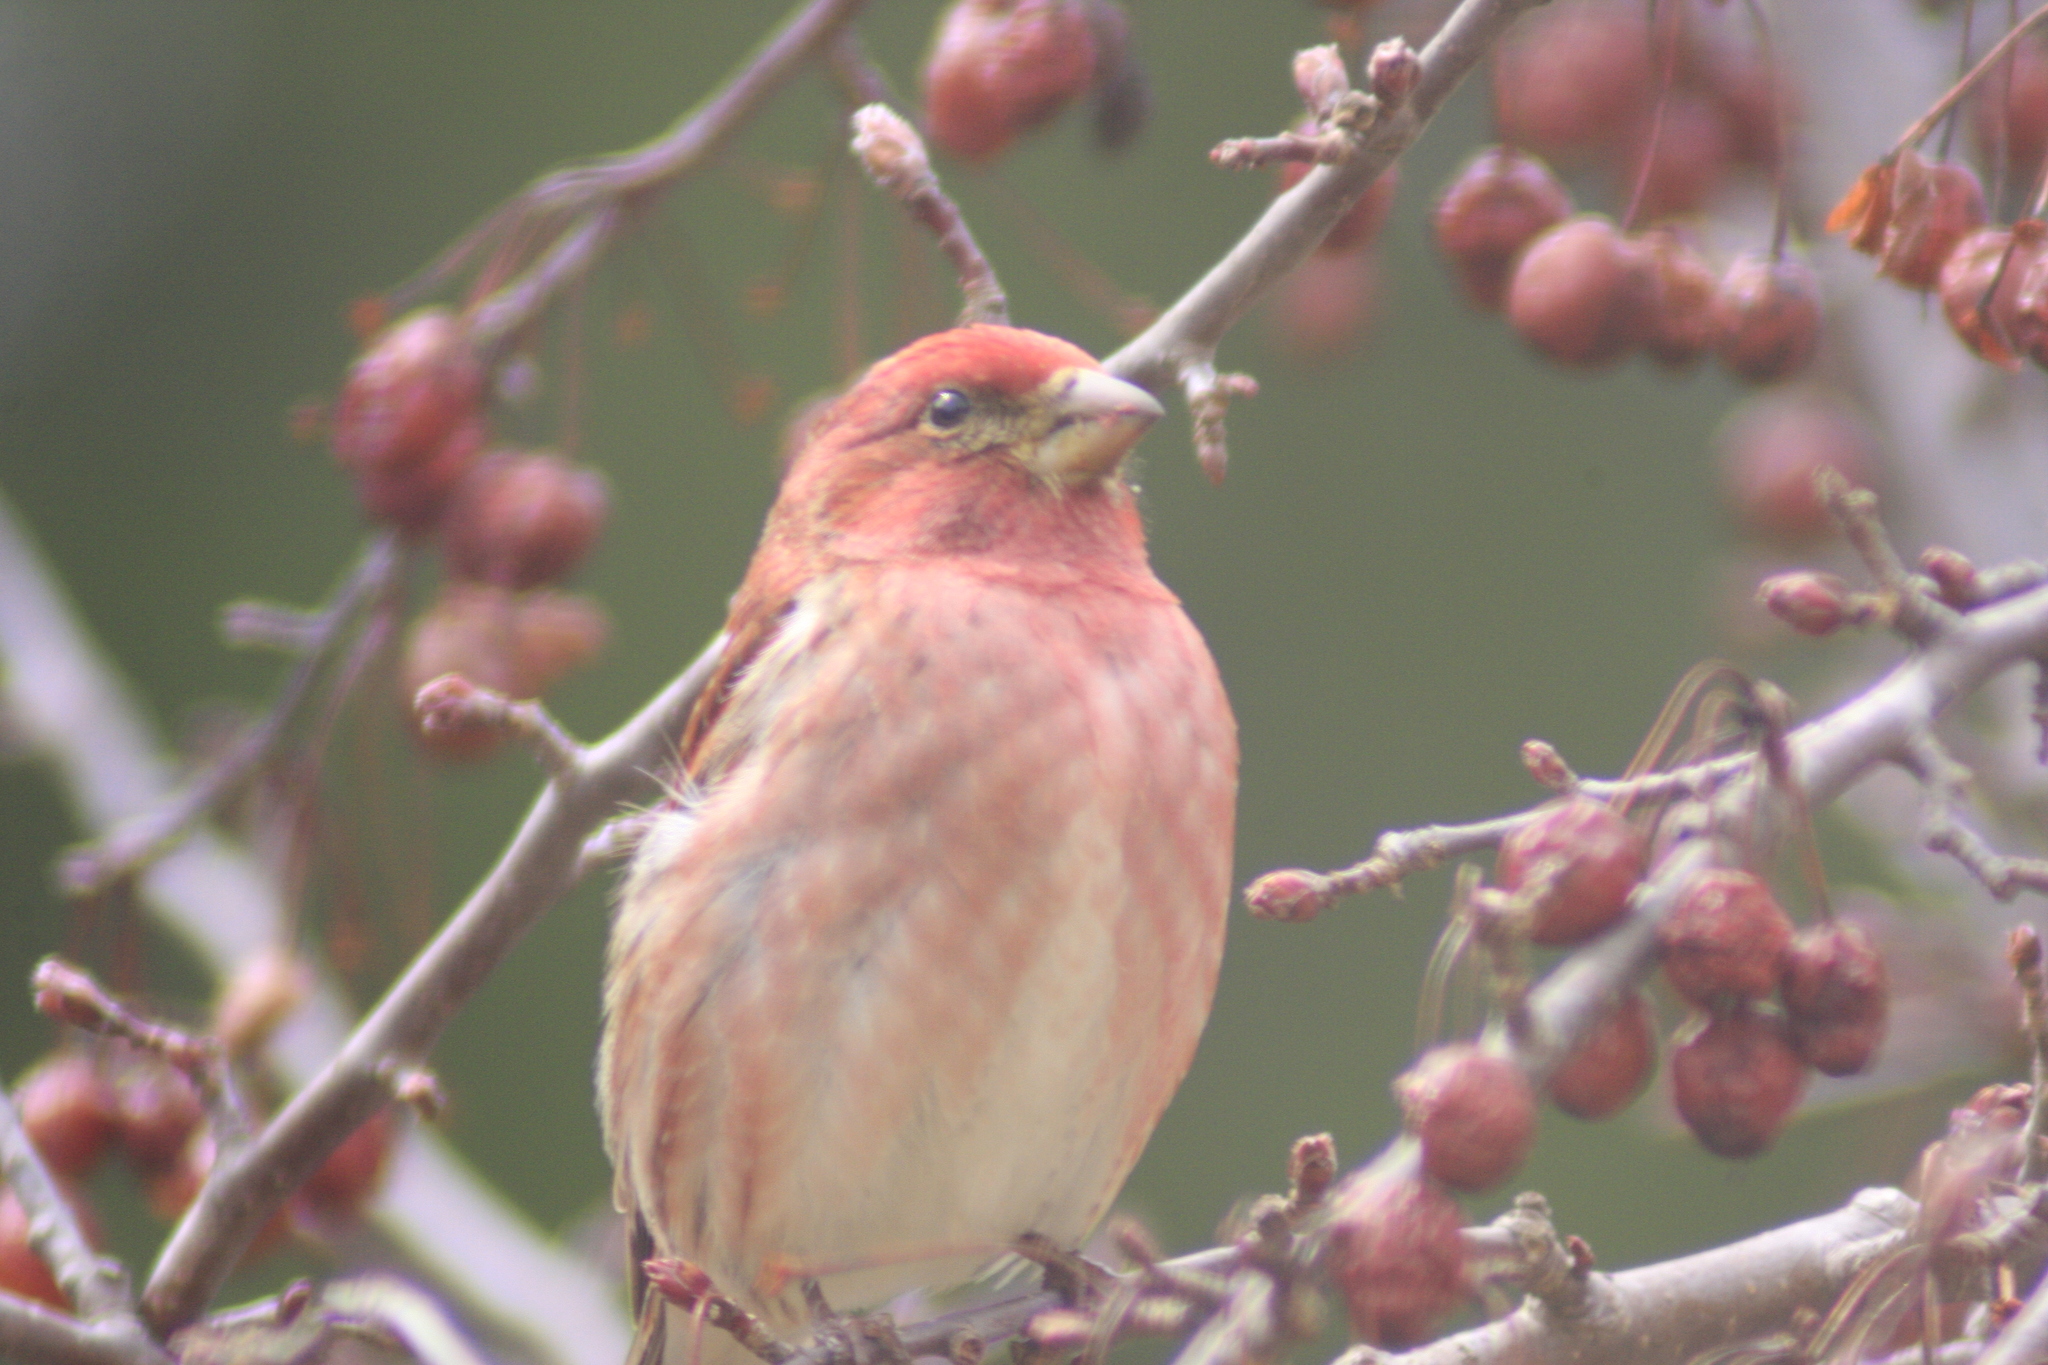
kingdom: Animalia
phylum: Chordata
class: Aves
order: Passeriformes
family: Fringillidae
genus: Haemorhous
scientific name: Haemorhous purpureus
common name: Purple finch
